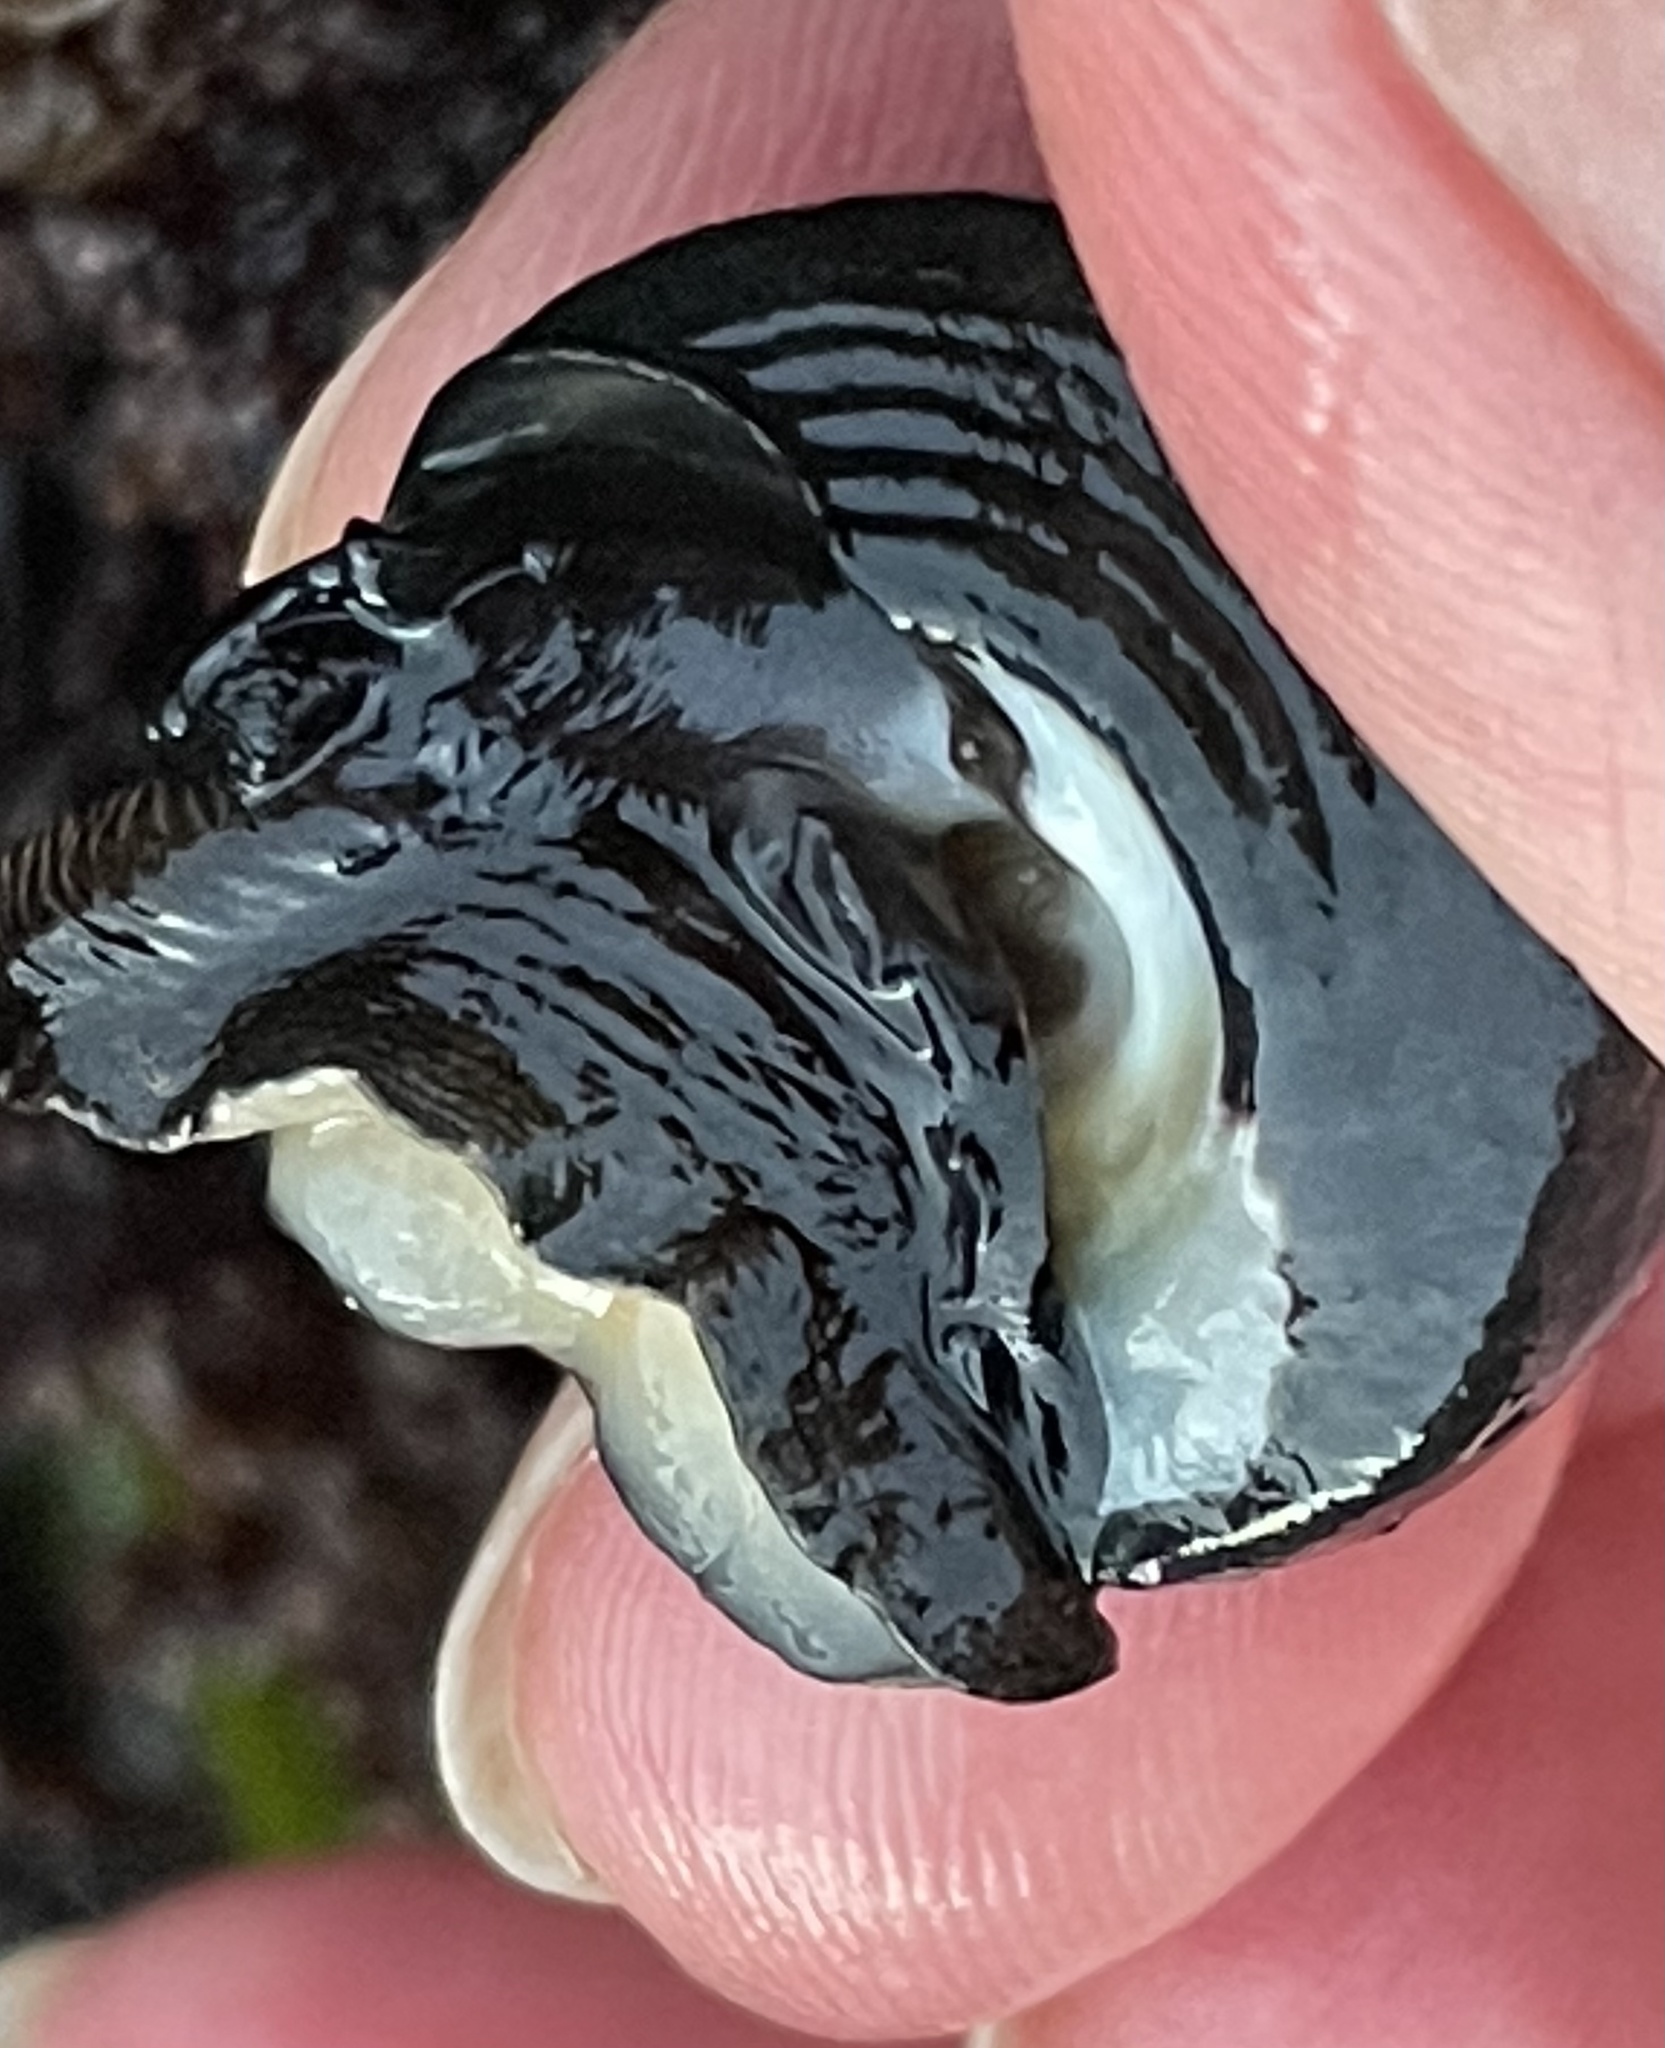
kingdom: Animalia
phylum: Mollusca
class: Gastropoda
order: Trochida
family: Tegulidae
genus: Tegula
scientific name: Tegula funebralis
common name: Black tegula
